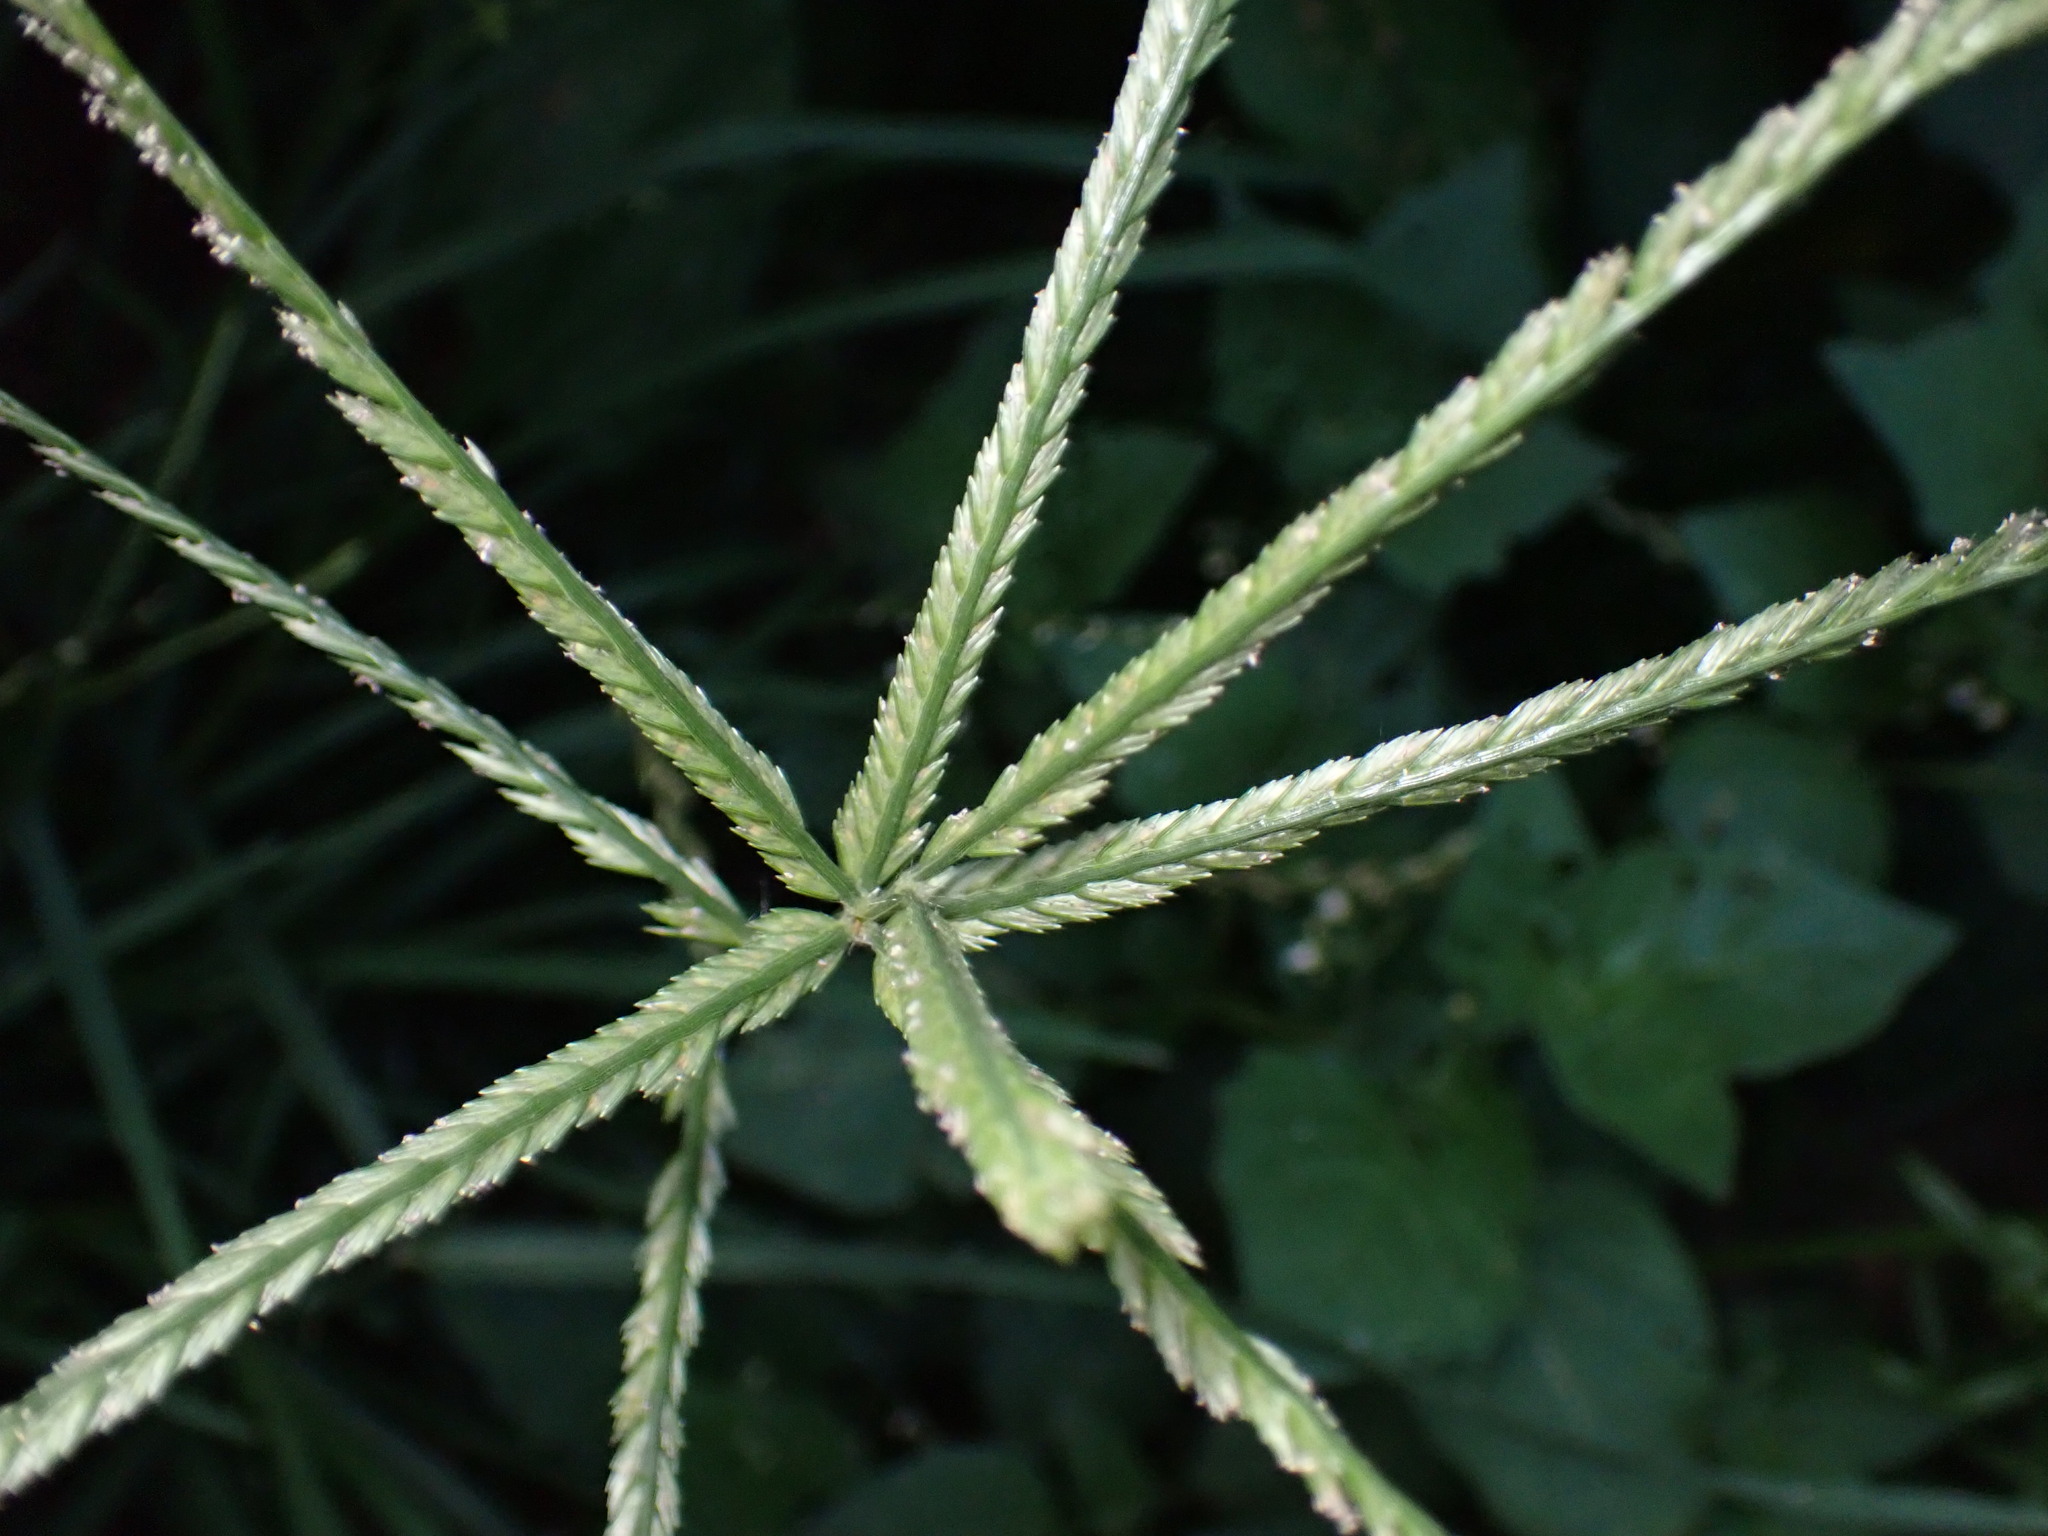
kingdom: Plantae
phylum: Tracheophyta
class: Liliopsida
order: Poales
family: Poaceae
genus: Eleusine
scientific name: Eleusine indica
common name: Yard-grass
